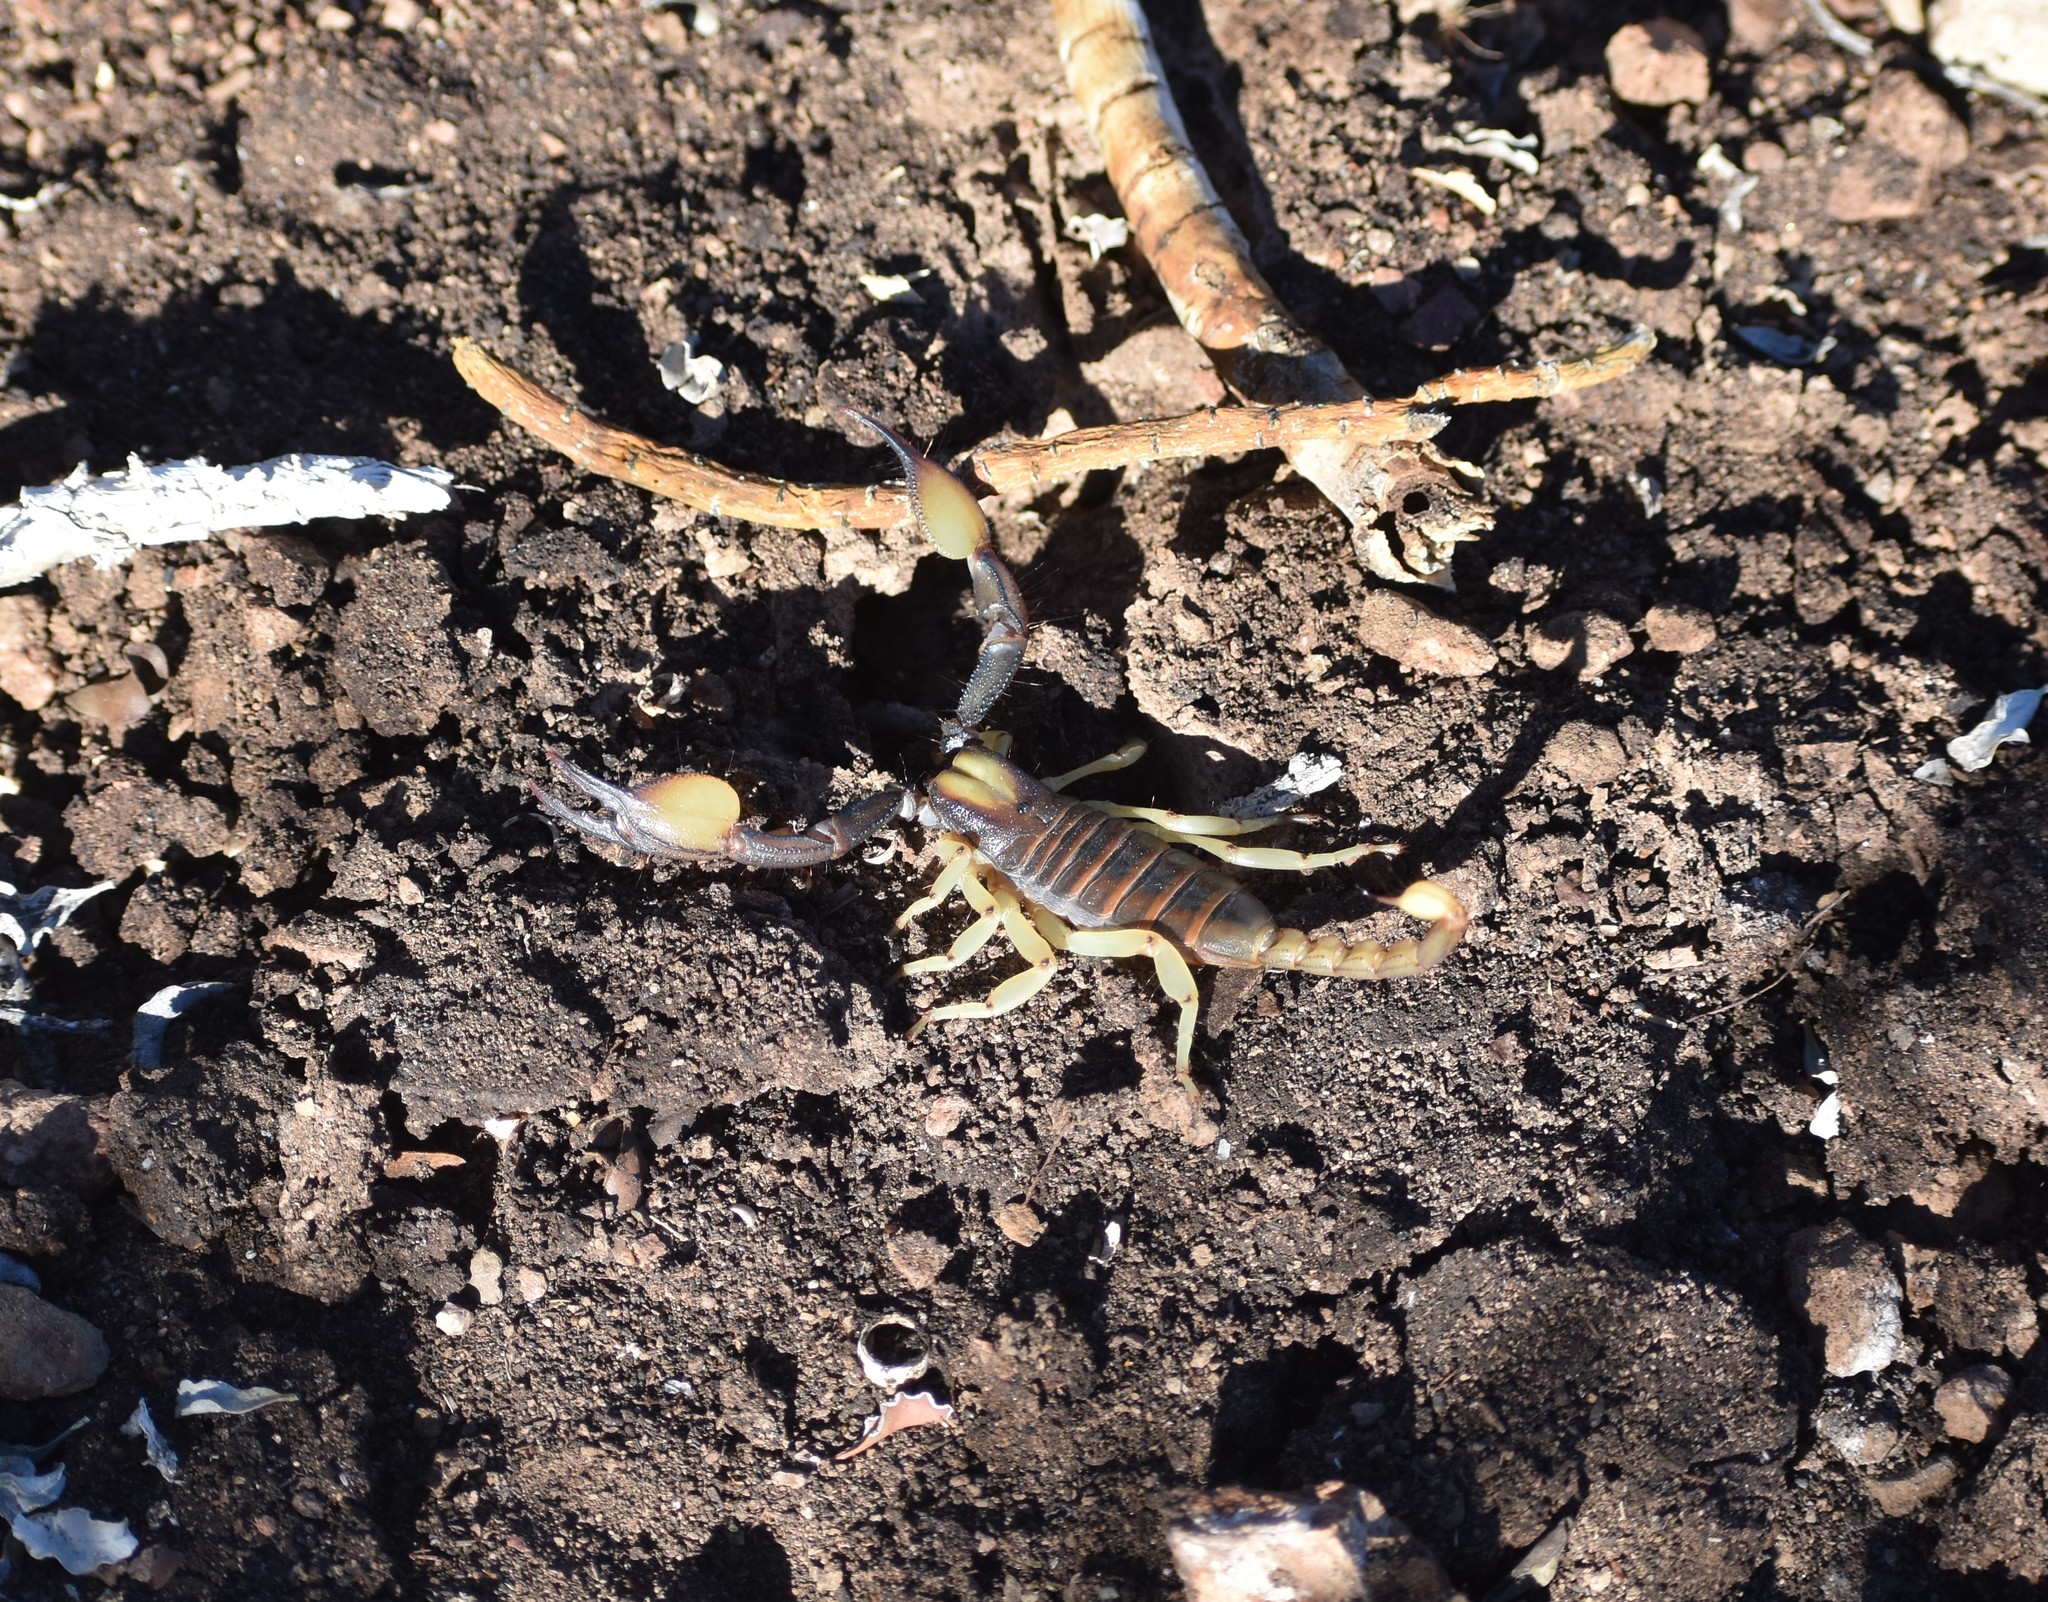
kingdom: Animalia
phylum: Arthropoda
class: Arachnida
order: Scorpiones
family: Scorpionidae
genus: Opistophthalmus
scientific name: Opistophthalmus karrooensis
